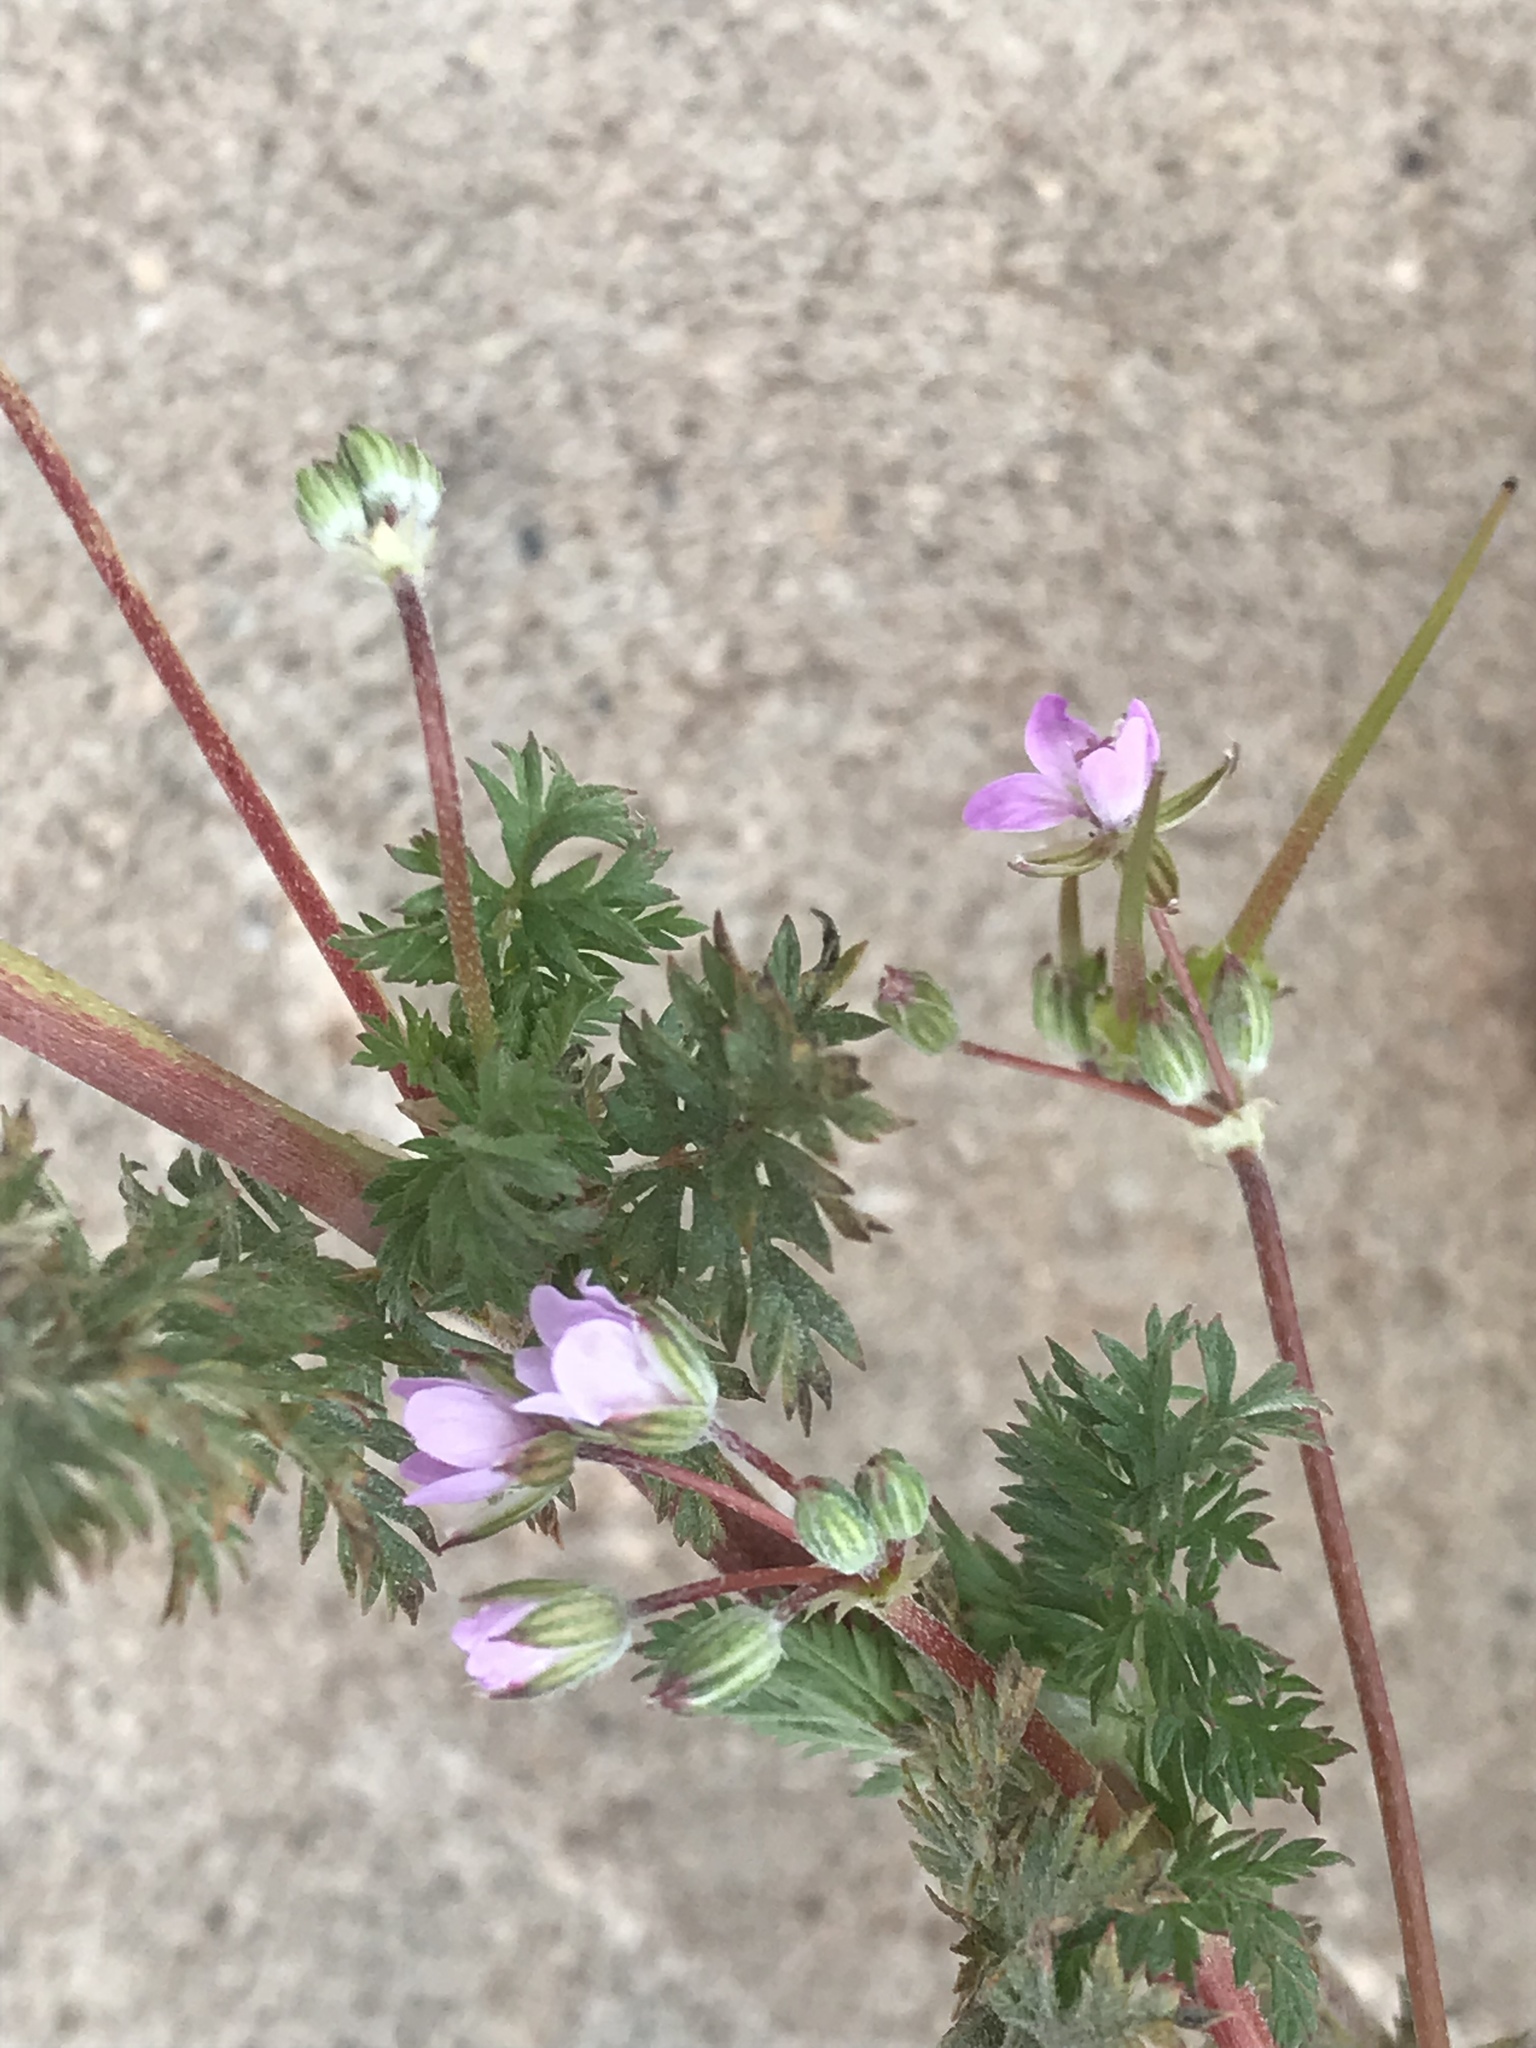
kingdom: Plantae
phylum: Tracheophyta
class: Magnoliopsida
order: Geraniales
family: Geraniaceae
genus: Erodium
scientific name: Erodium cicutarium
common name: Common stork's-bill
